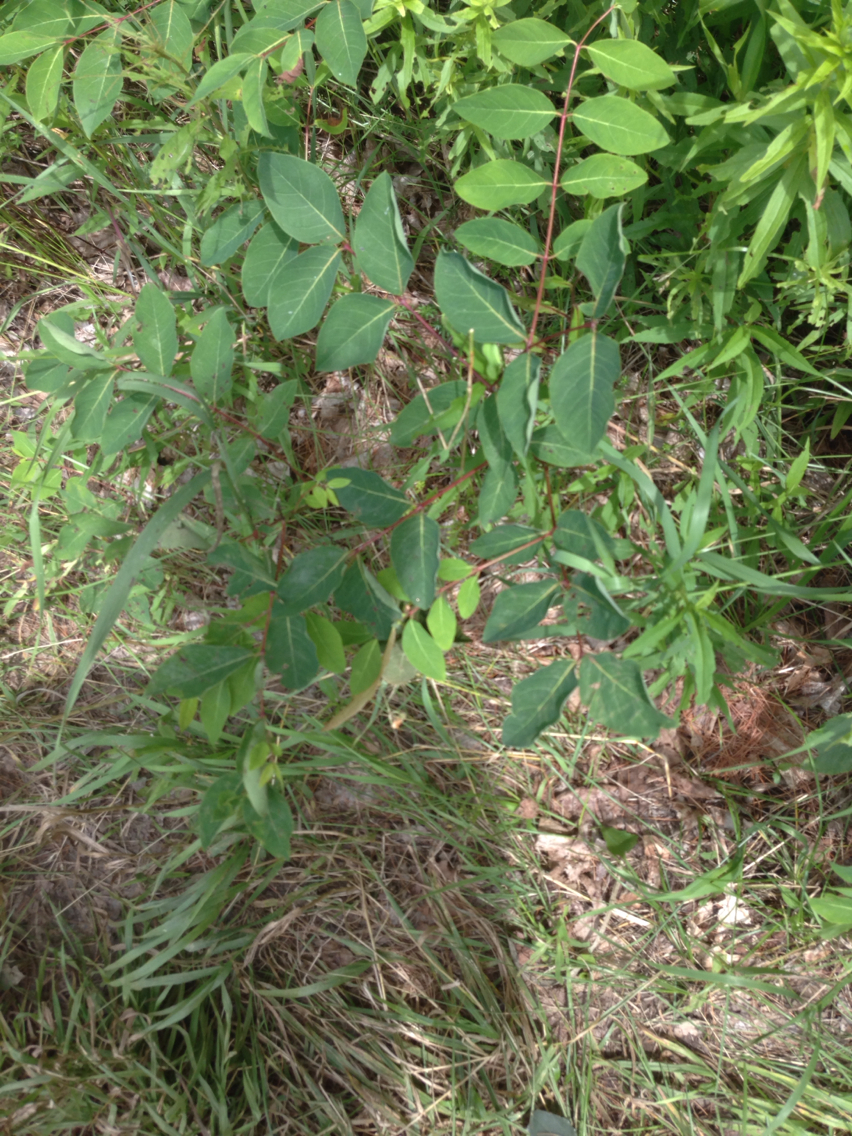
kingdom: Plantae
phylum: Tracheophyta
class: Magnoliopsida
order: Gentianales
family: Apocynaceae
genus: Apocynum
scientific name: Apocynum androsaemifolium
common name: Spreading dogbane
